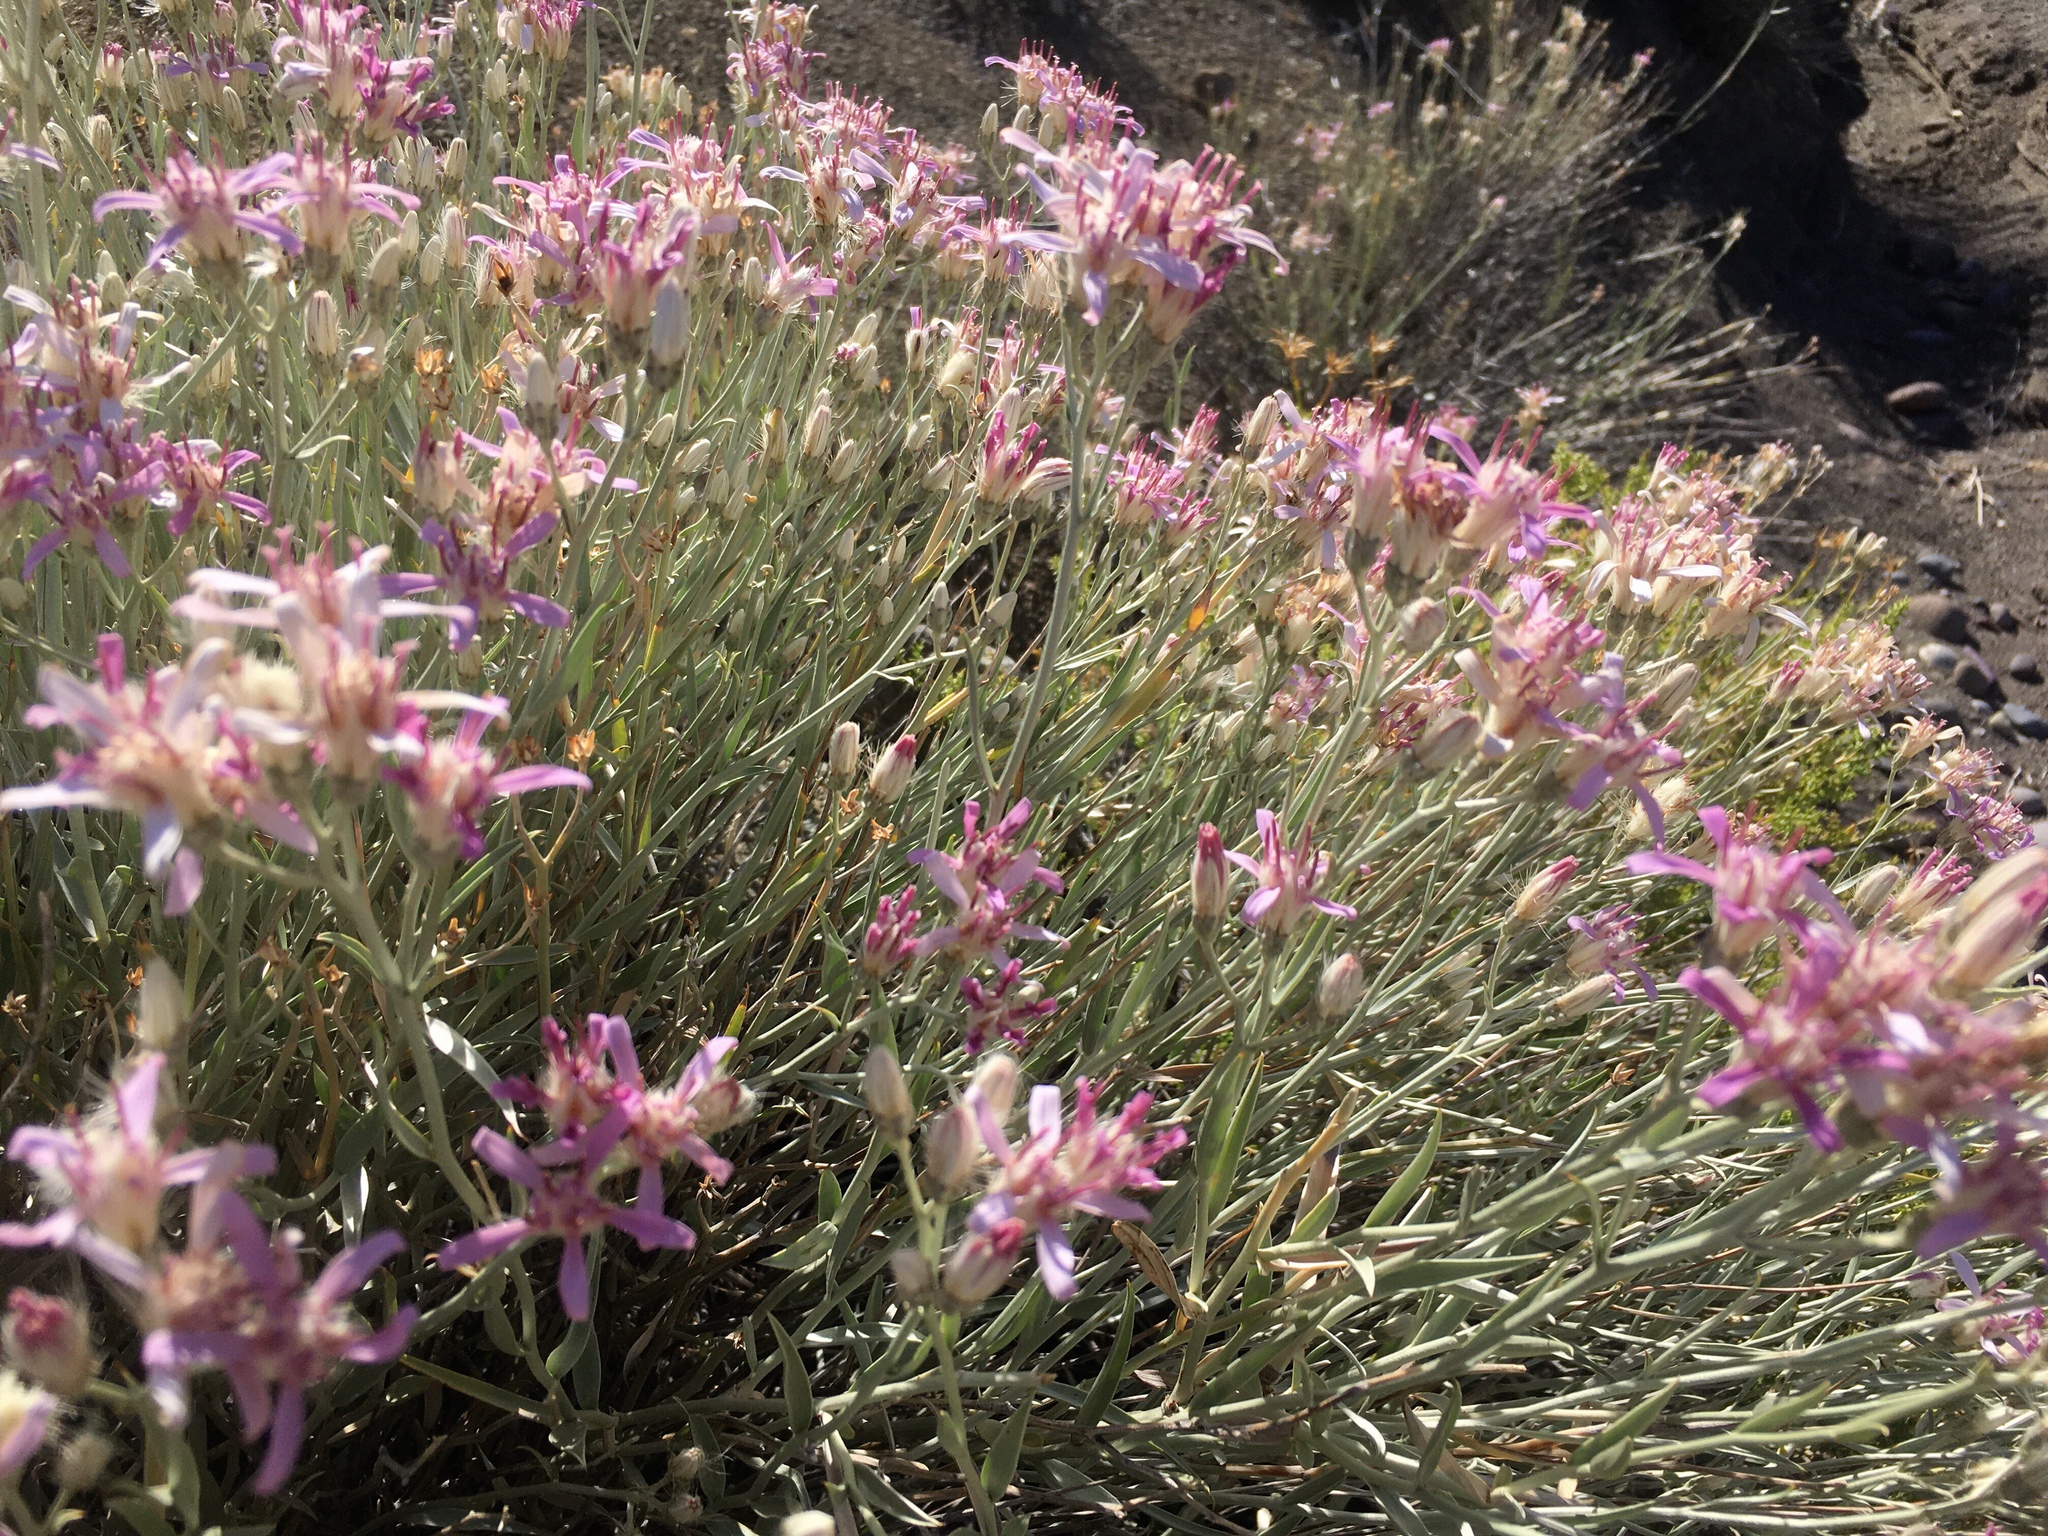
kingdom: Plantae
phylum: Tracheophyta
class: Magnoliopsida
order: Asterales
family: Asteraceae
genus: Hyalis
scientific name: Hyalis argentea
